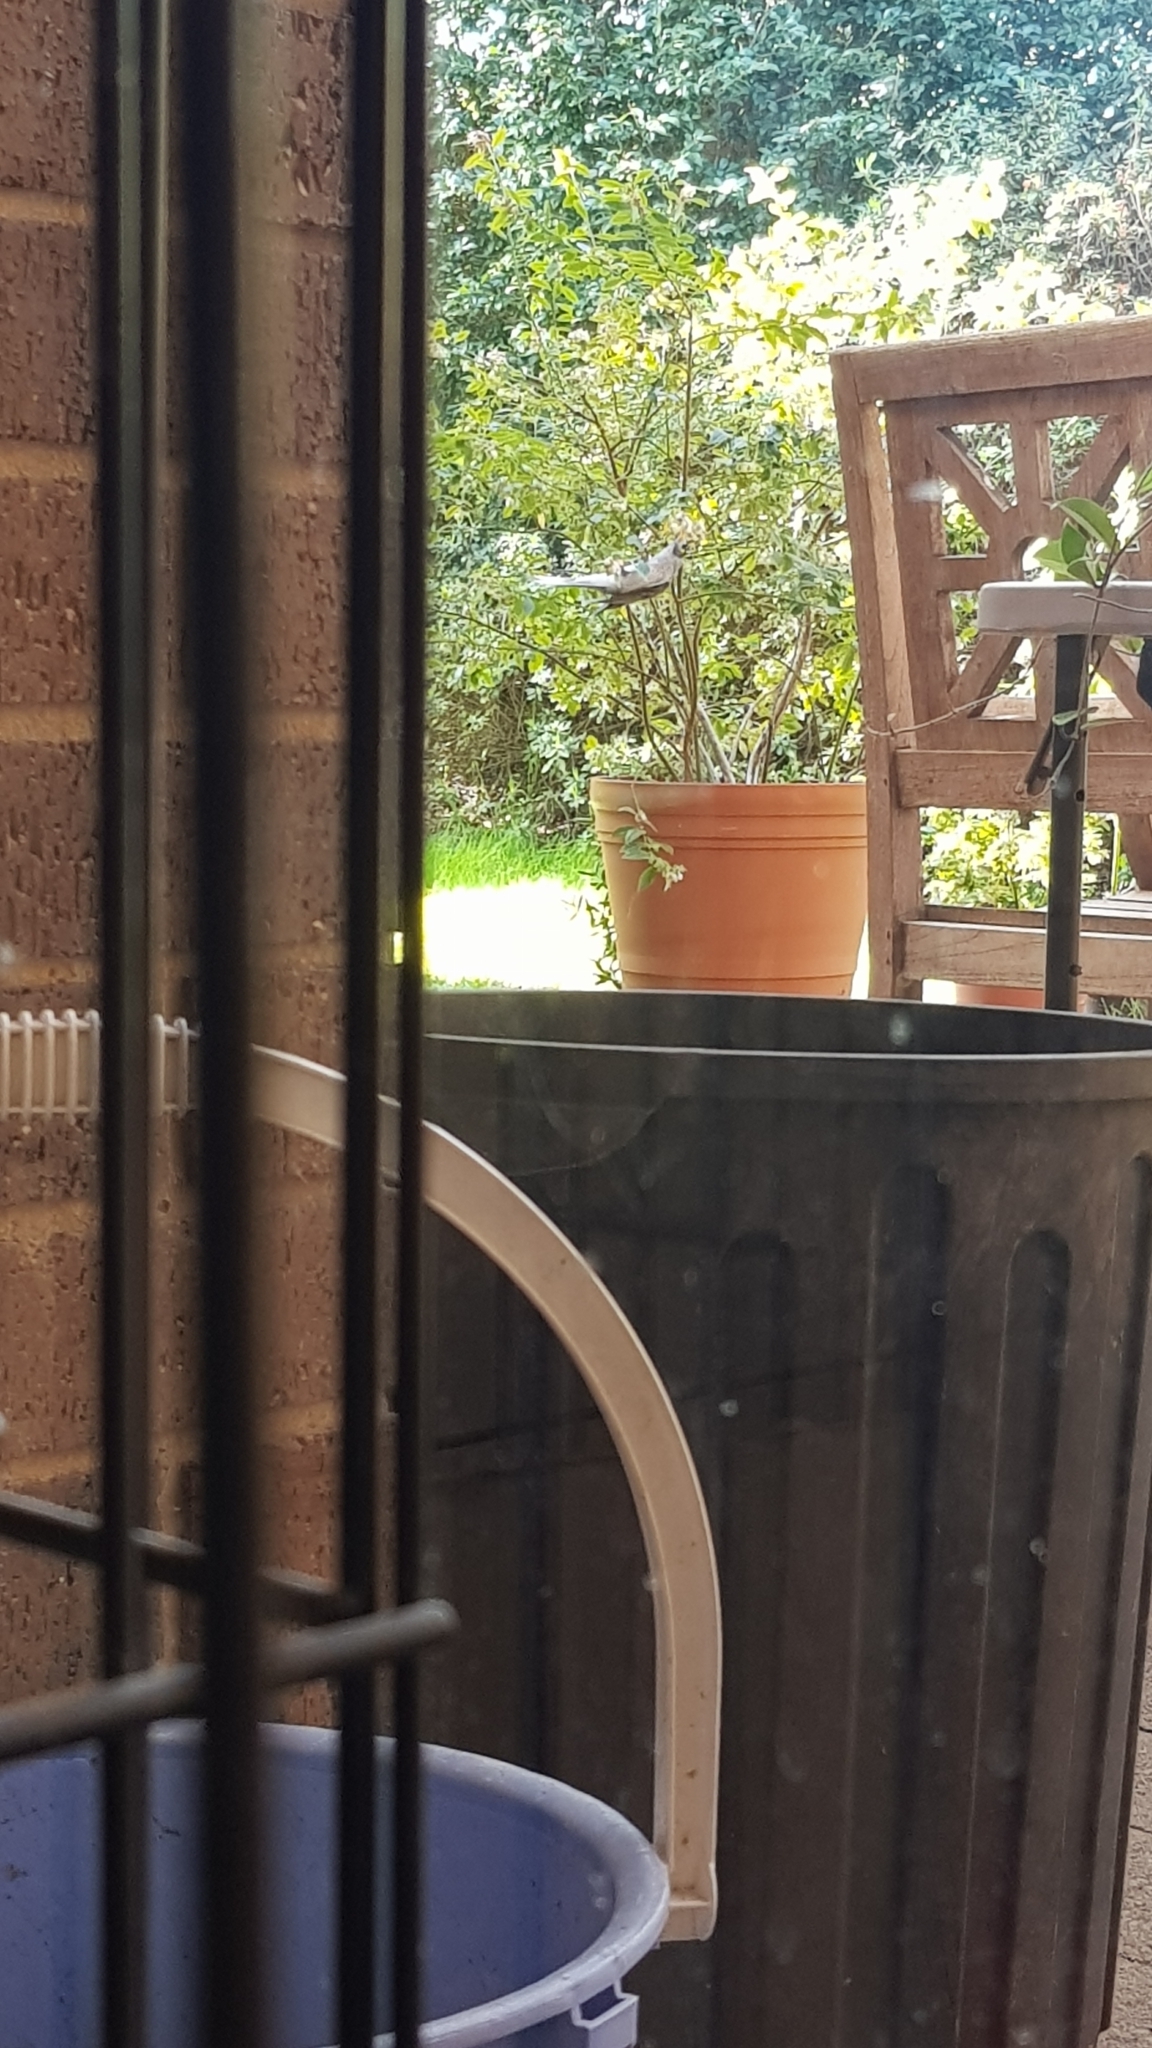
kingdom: Animalia
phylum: Chordata
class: Aves
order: Passeriformes
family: Meliphagidae
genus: Manorina
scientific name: Manorina melanocephala
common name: Noisy miner
